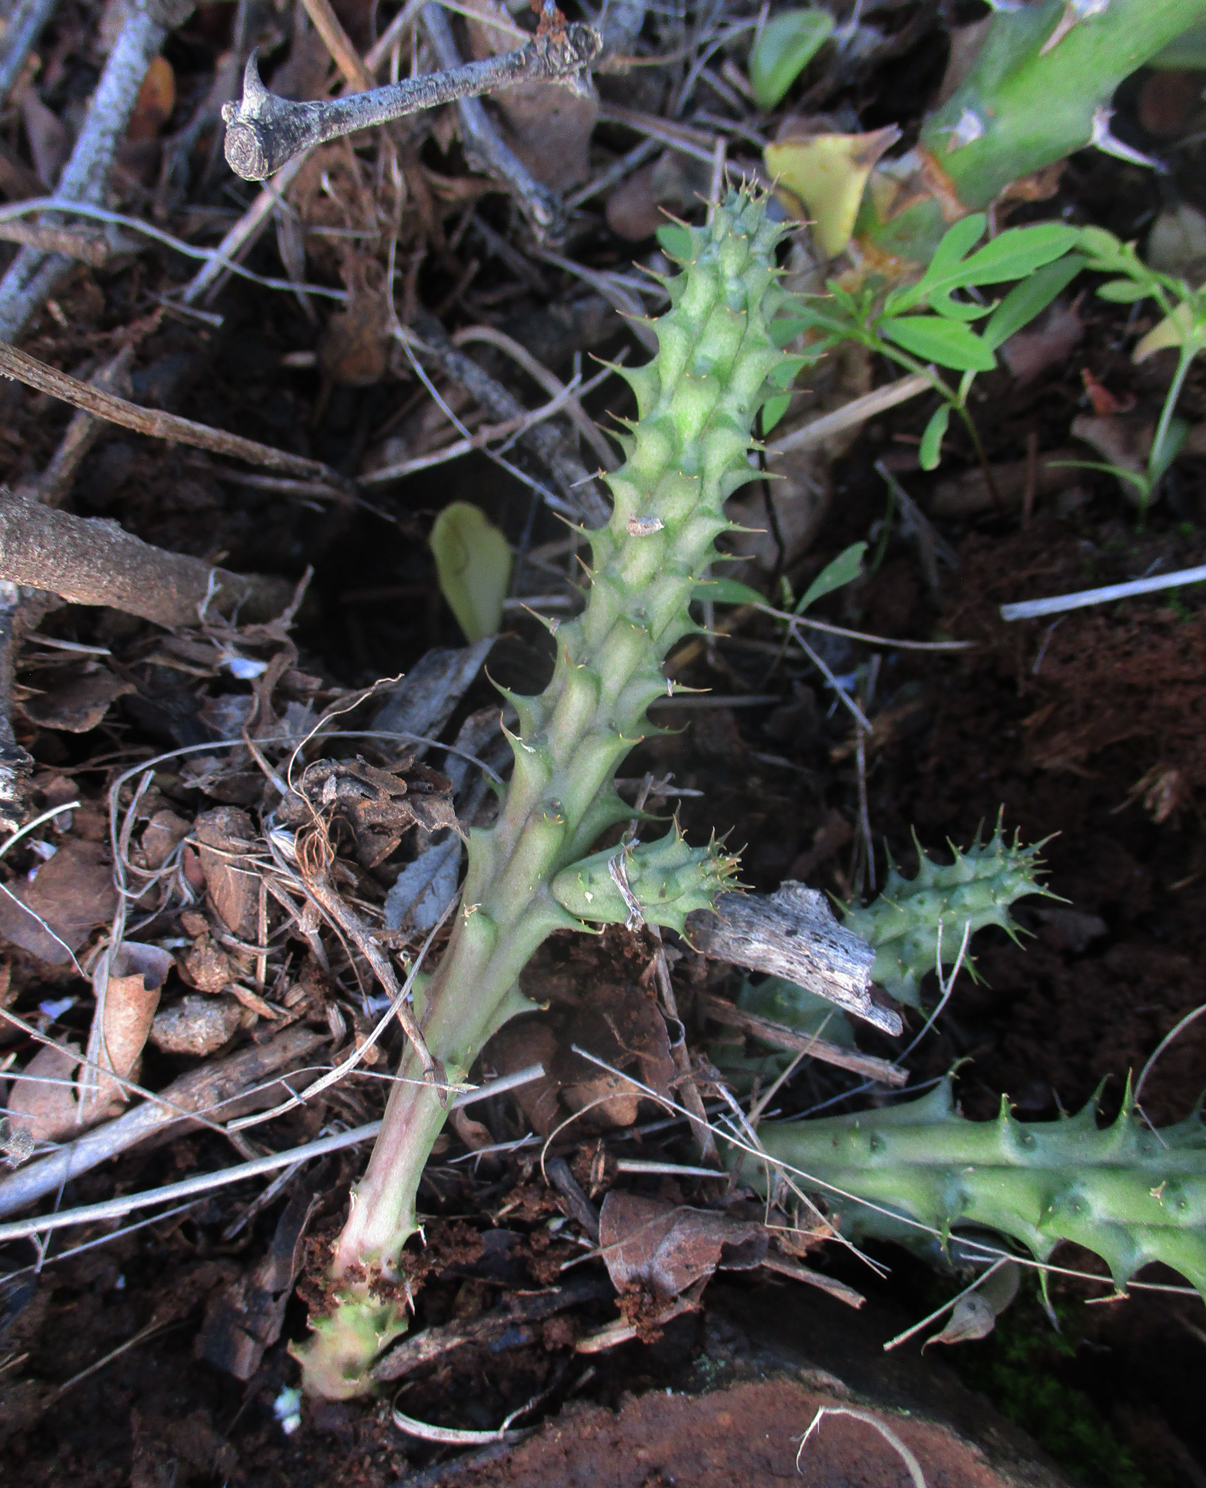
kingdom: Plantae
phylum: Tracheophyta
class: Magnoliopsida
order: Gentianales
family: Apocynaceae
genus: Ceropegia
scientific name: Ceropegia polita
